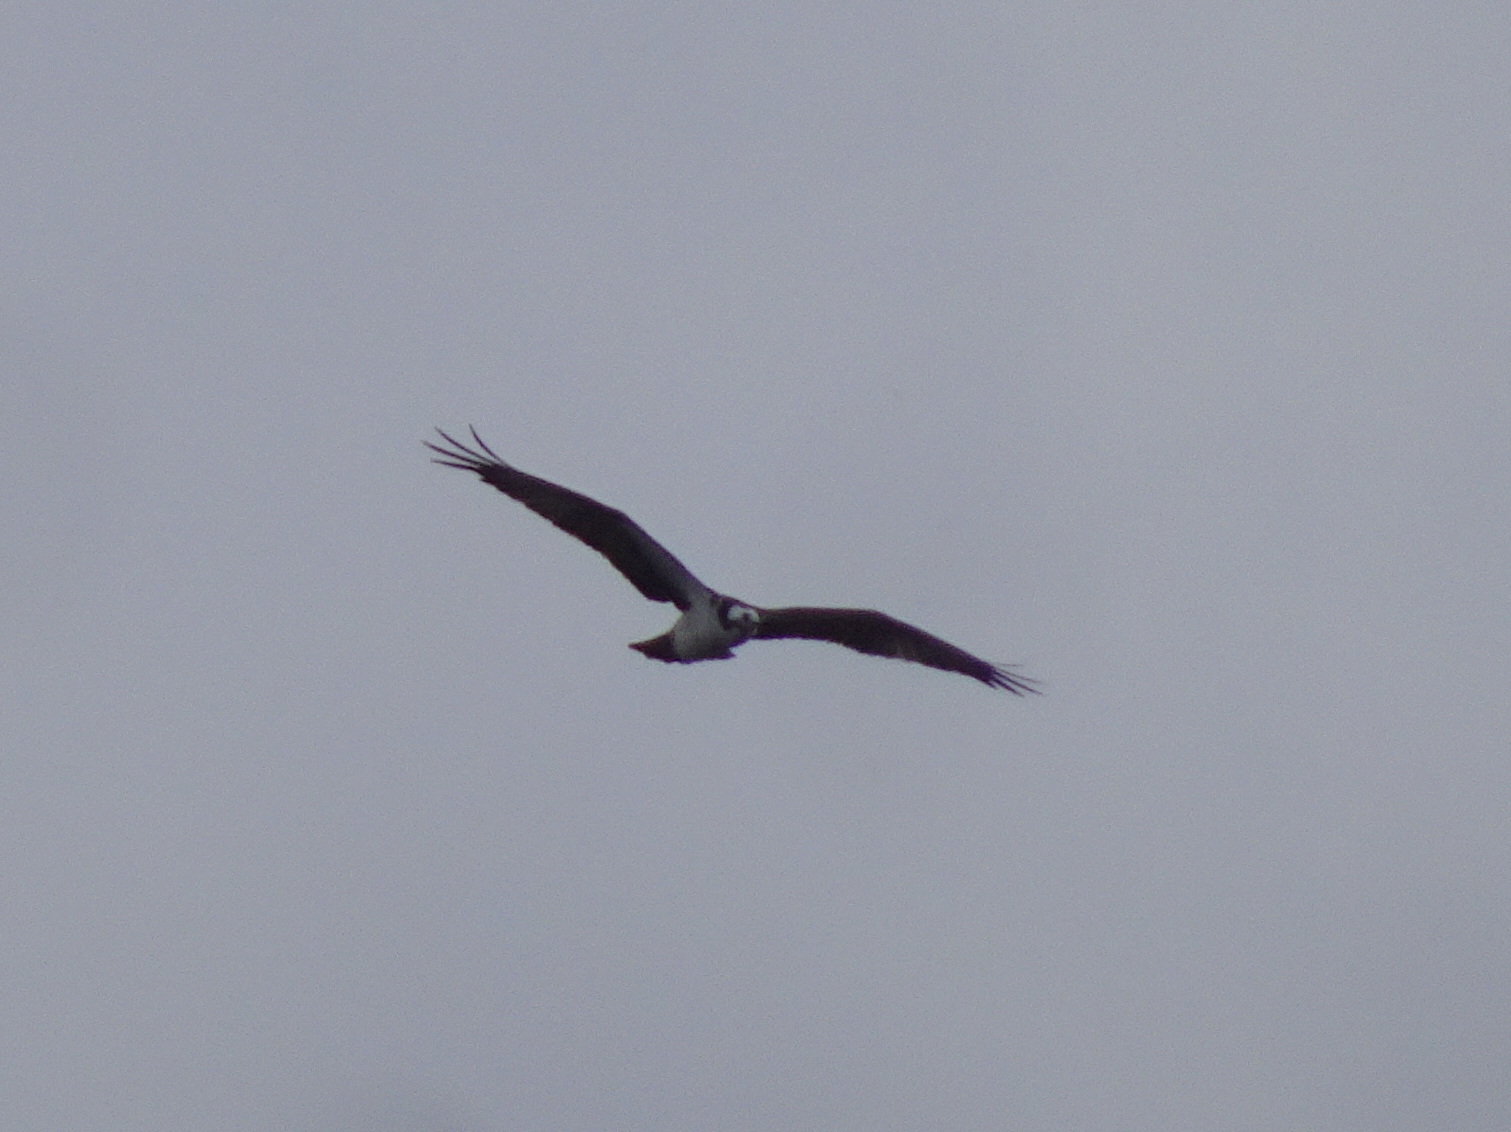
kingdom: Animalia
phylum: Chordata
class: Aves
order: Accipitriformes
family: Pandionidae
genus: Pandion
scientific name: Pandion haliaetus
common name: Osprey
